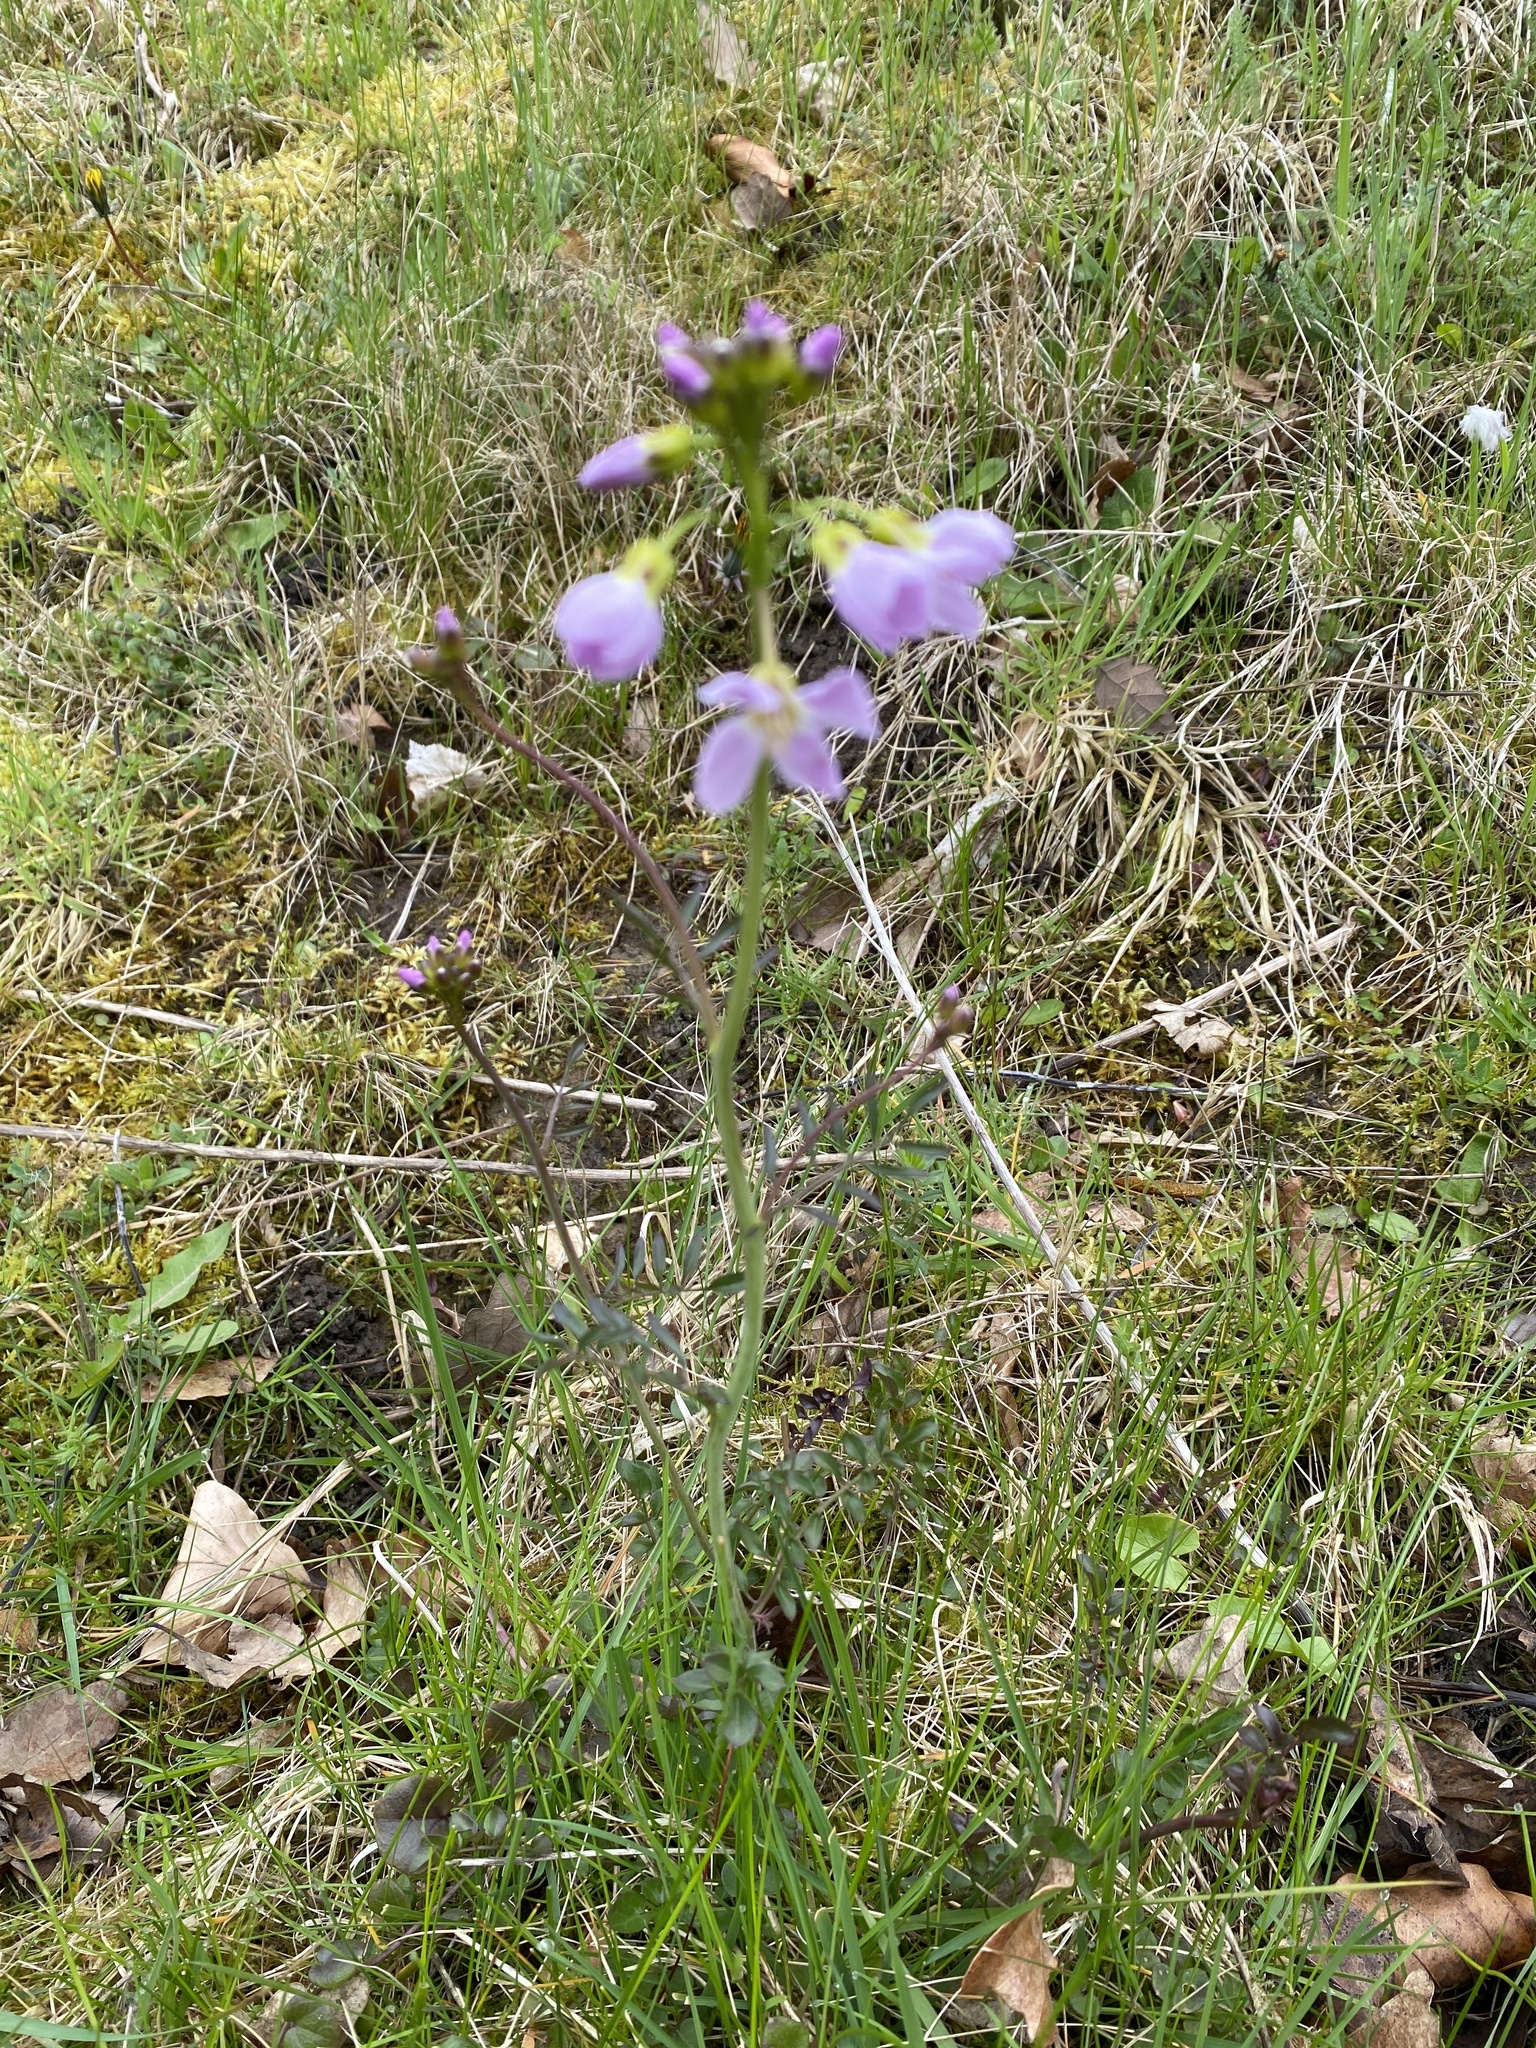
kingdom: Plantae
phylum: Tracheophyta
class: Magnoliopsida
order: Brassicales
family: Brassicaceae
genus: Cardamine
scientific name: Cardamine pratensis
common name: Cuckoo flower
